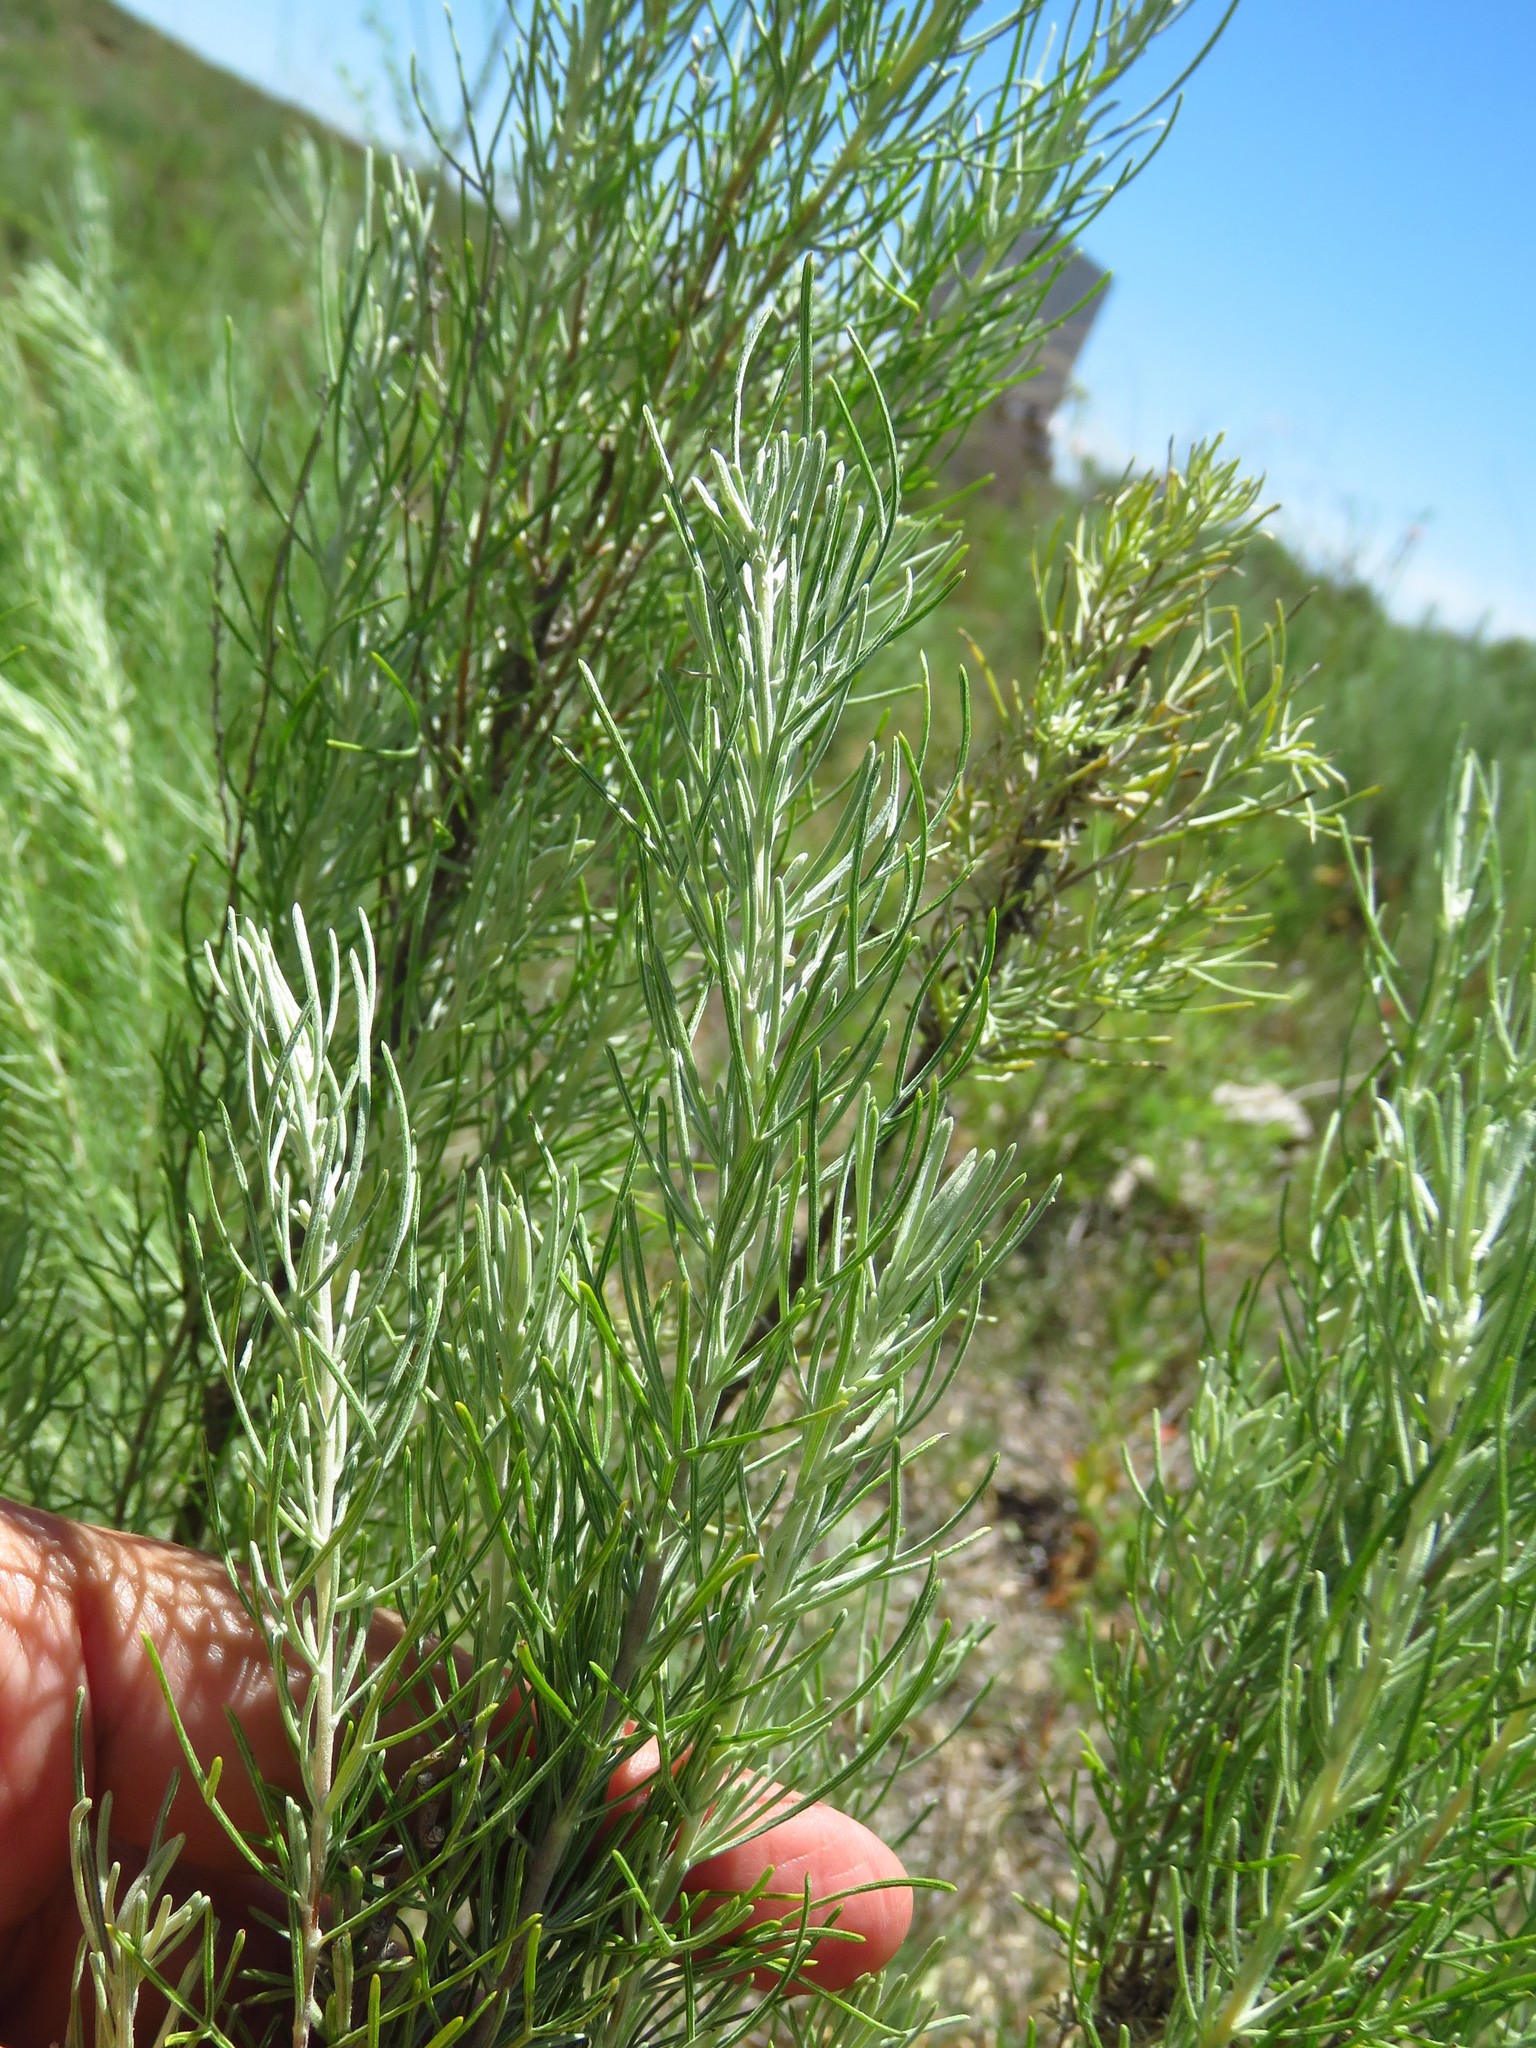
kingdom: Plantae
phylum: Tracheophyta
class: Magnoliopsida
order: Asterales
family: Asteraceae
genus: Artemisia
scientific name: Artemisia filifolia
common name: Sand-sage
